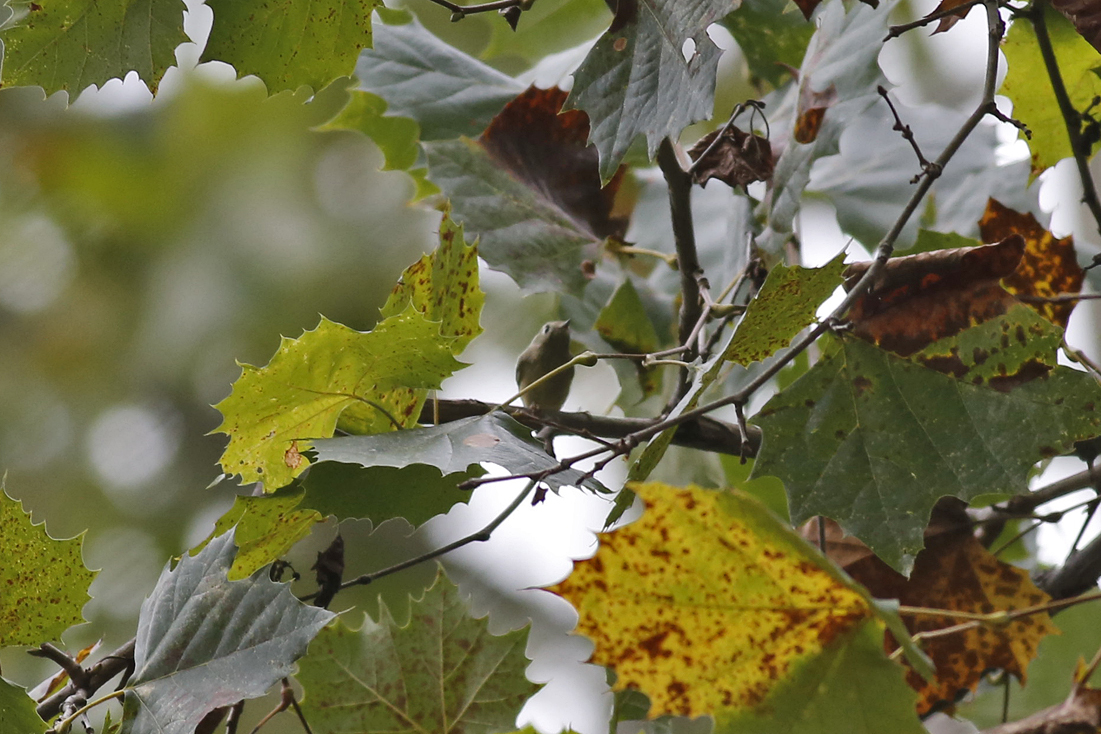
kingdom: Animalia
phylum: Chordata
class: Aves
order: Passeriformes
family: Regulidae
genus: Regulus
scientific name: Regulus calendula
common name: Ruby-crowned kinglet
